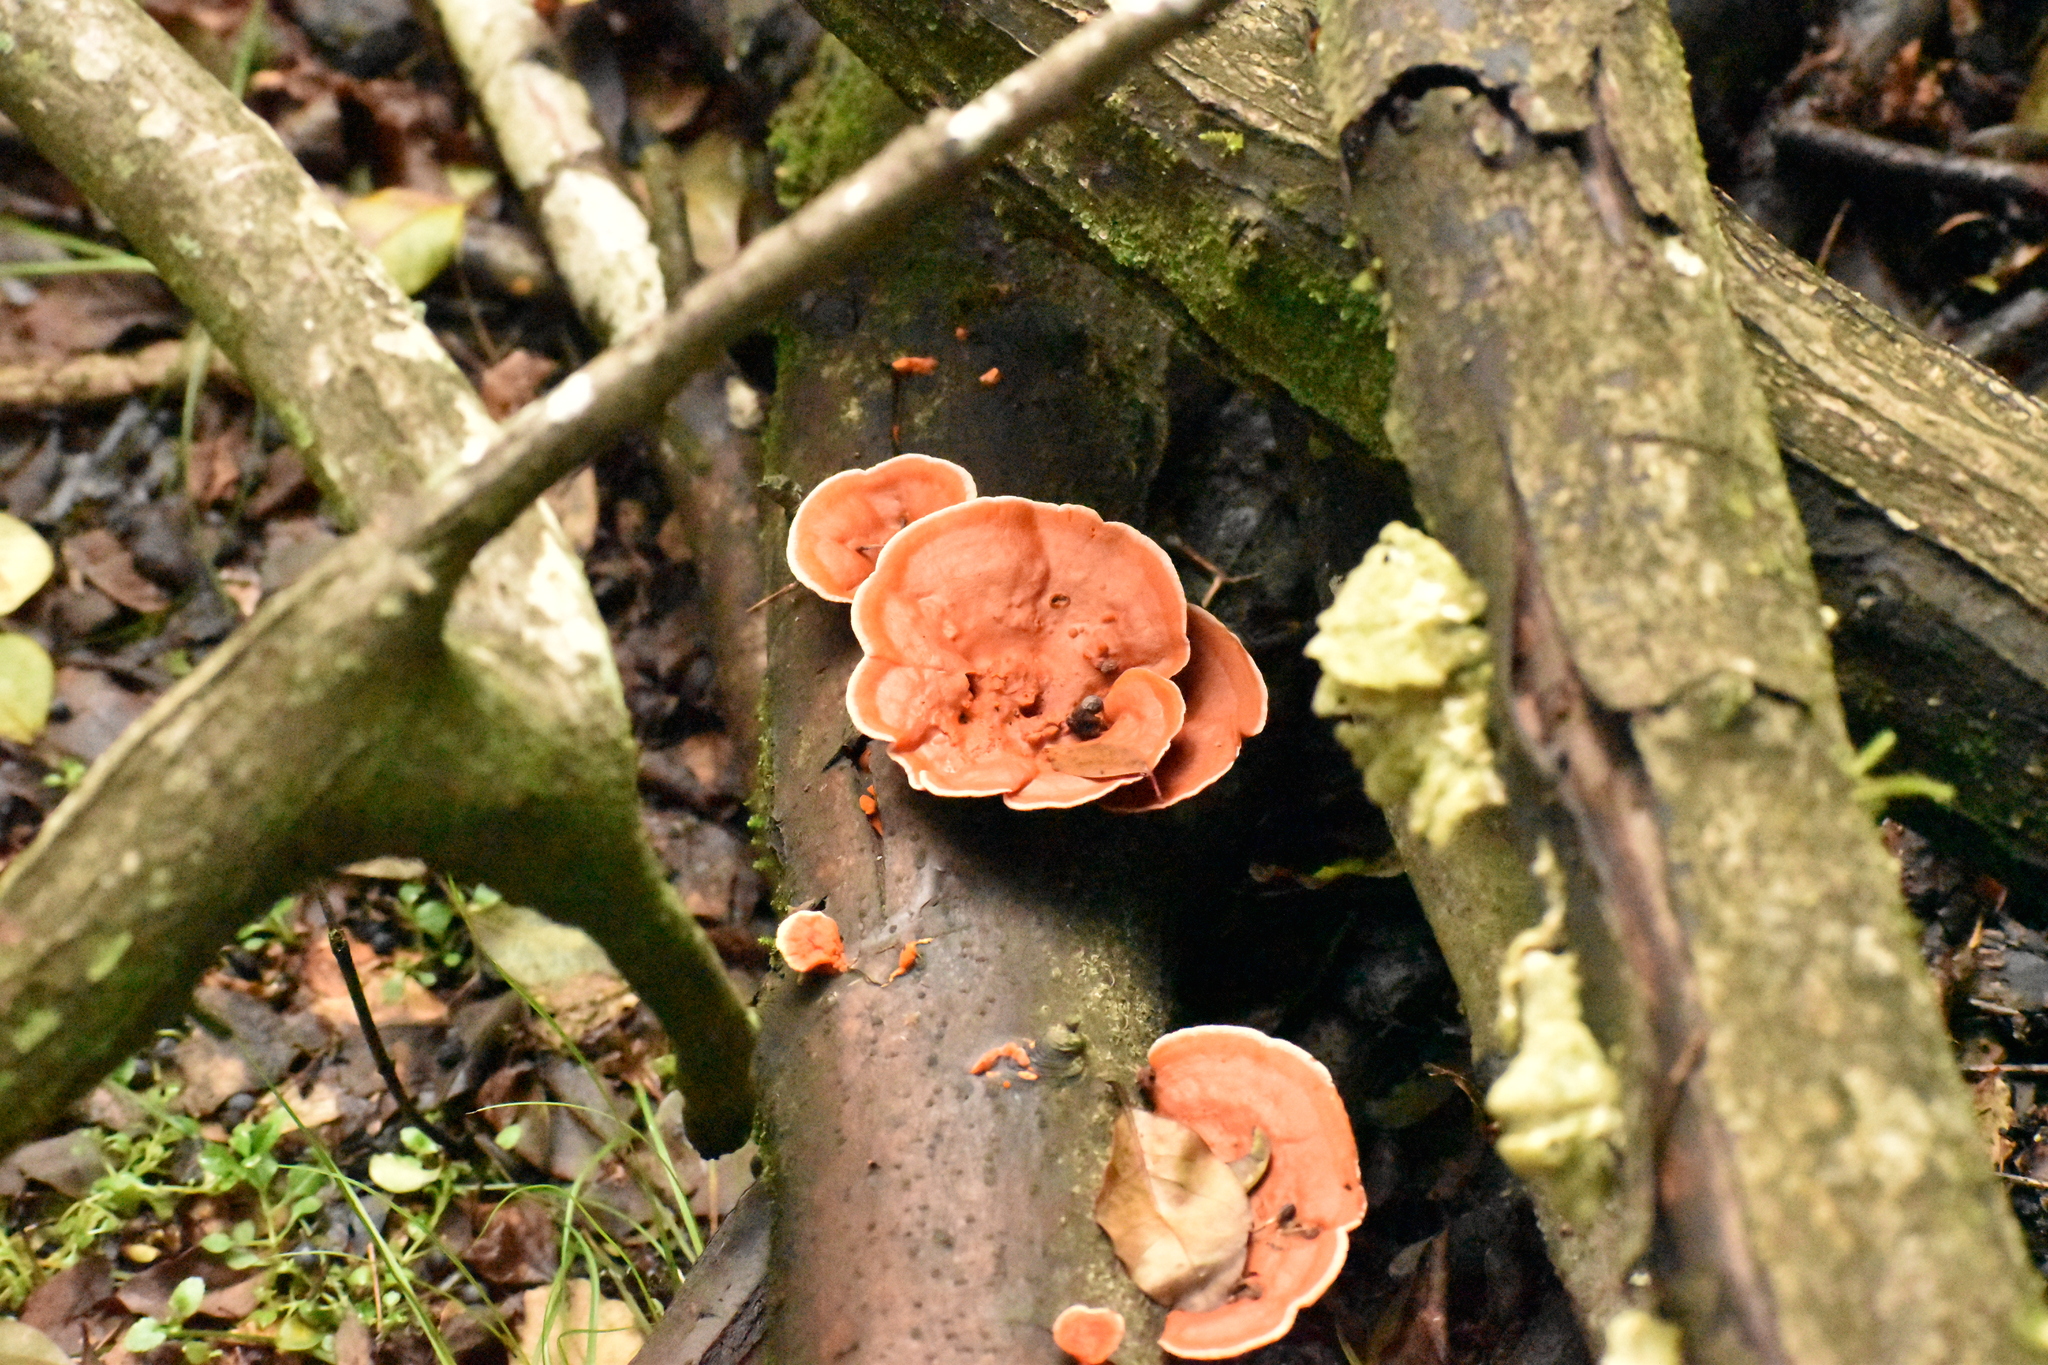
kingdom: Fungi
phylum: Basidiomycota
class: Agaricomycetes
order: Polyporales
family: Polyporaceae
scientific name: Polyporaceae
